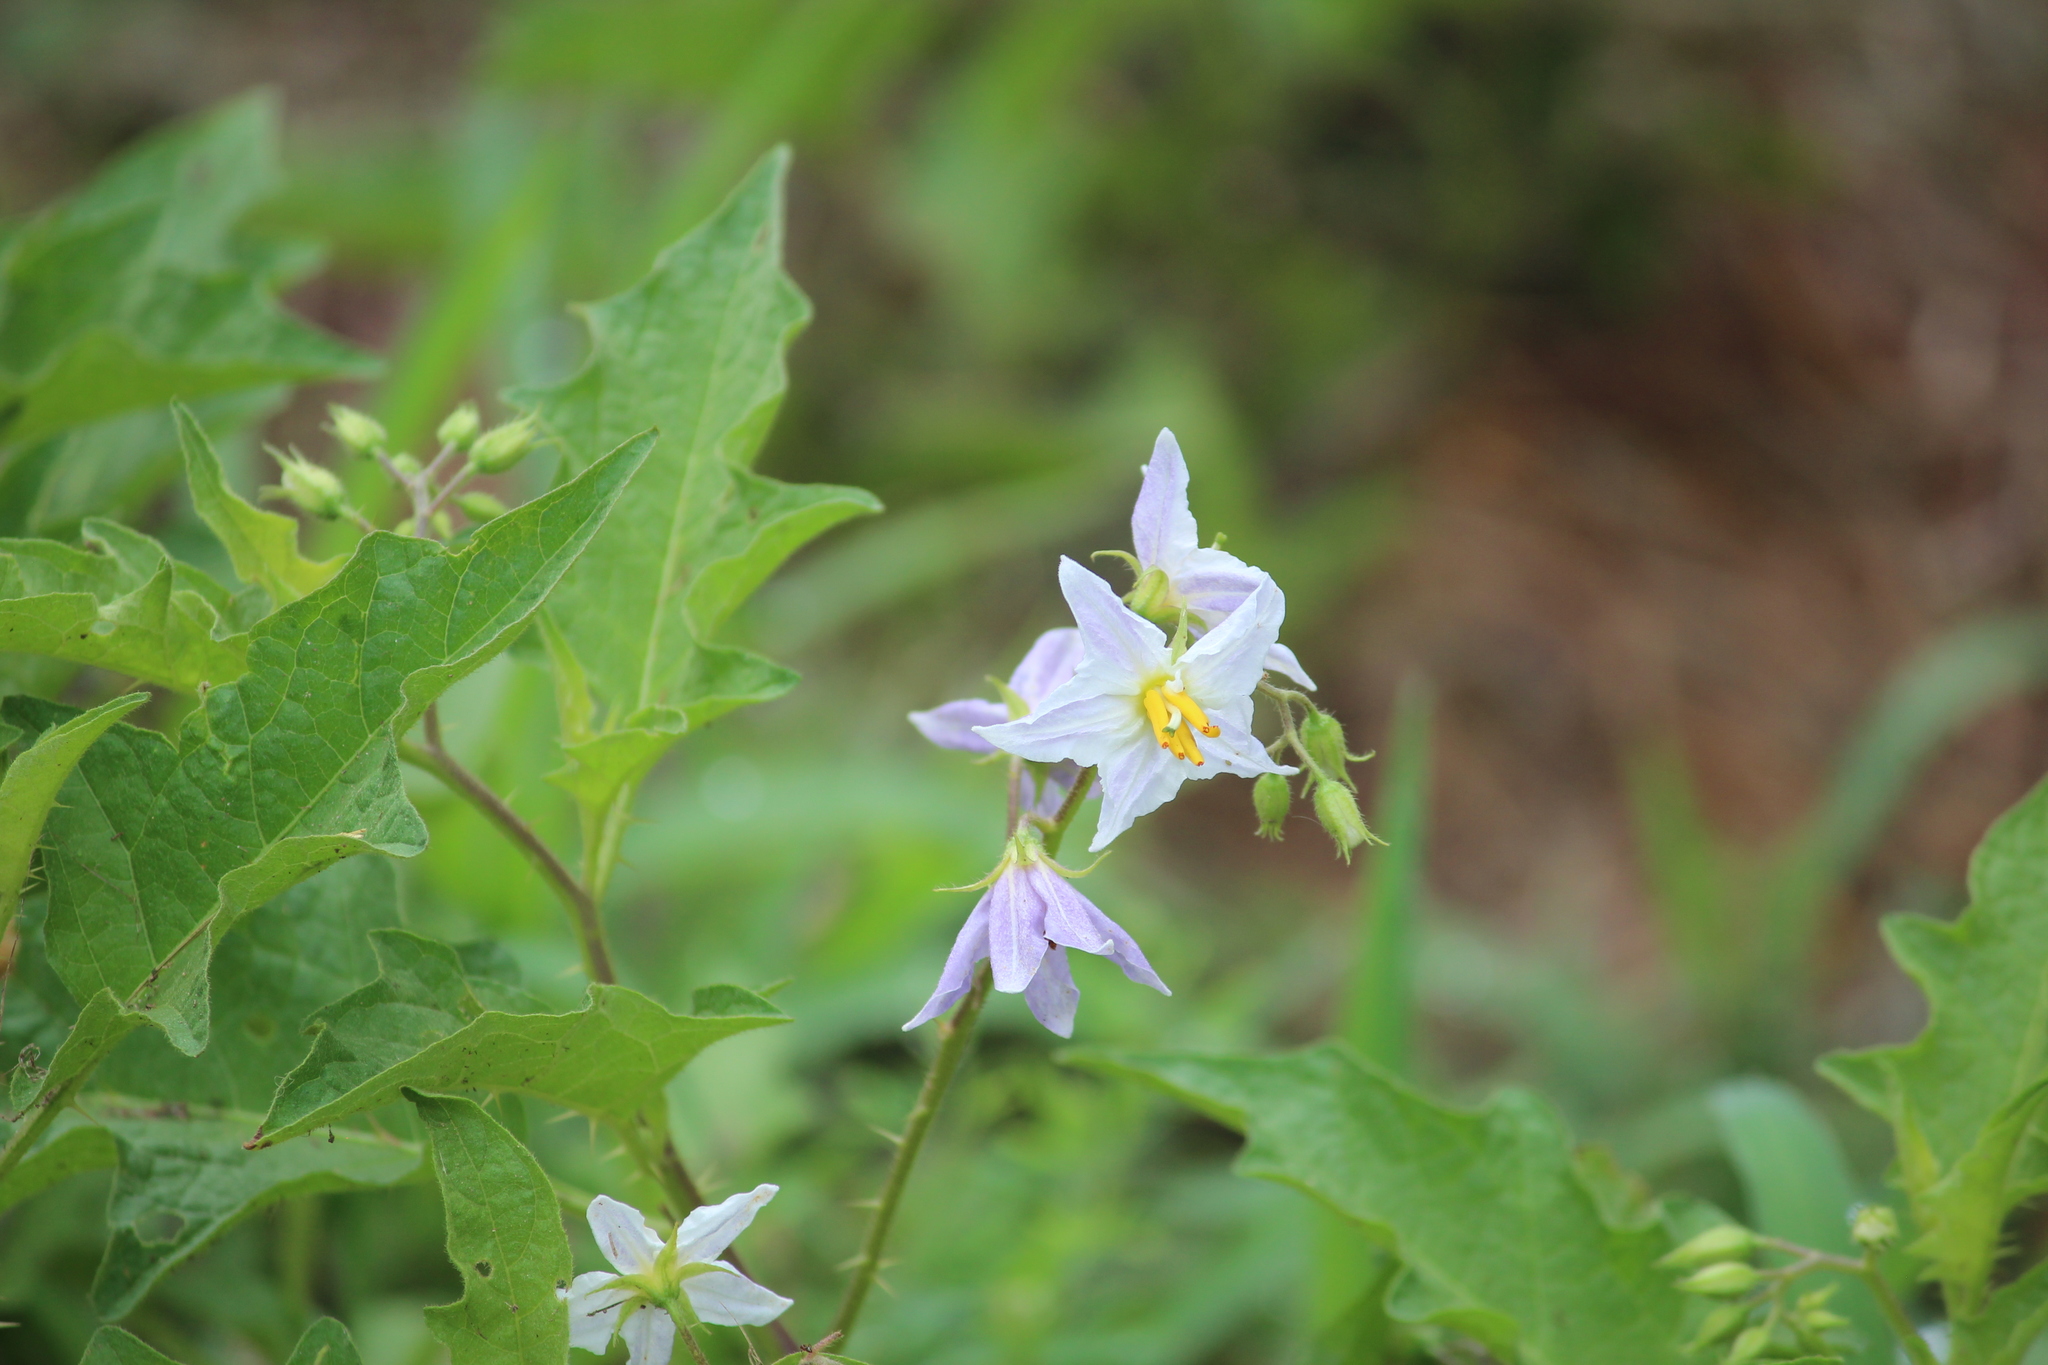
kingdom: Plantae
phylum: Tracheophyta
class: Magnoliopsida
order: Solanales
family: Solanaceae
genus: Solanum
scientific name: Solanum carolinense
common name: Horse-nettle
